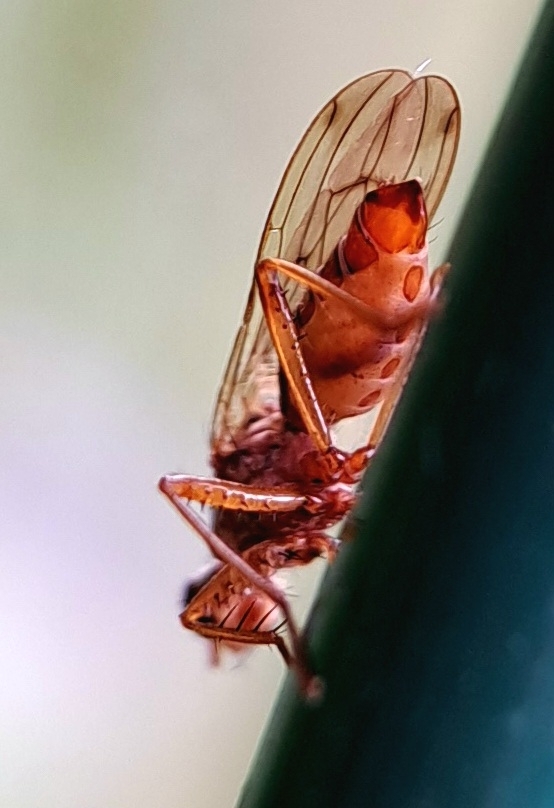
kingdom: Animalia
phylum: Arthropoda
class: Insecta
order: Diptera
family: Scathophagidae
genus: Norellia
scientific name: Norellia spinipes
